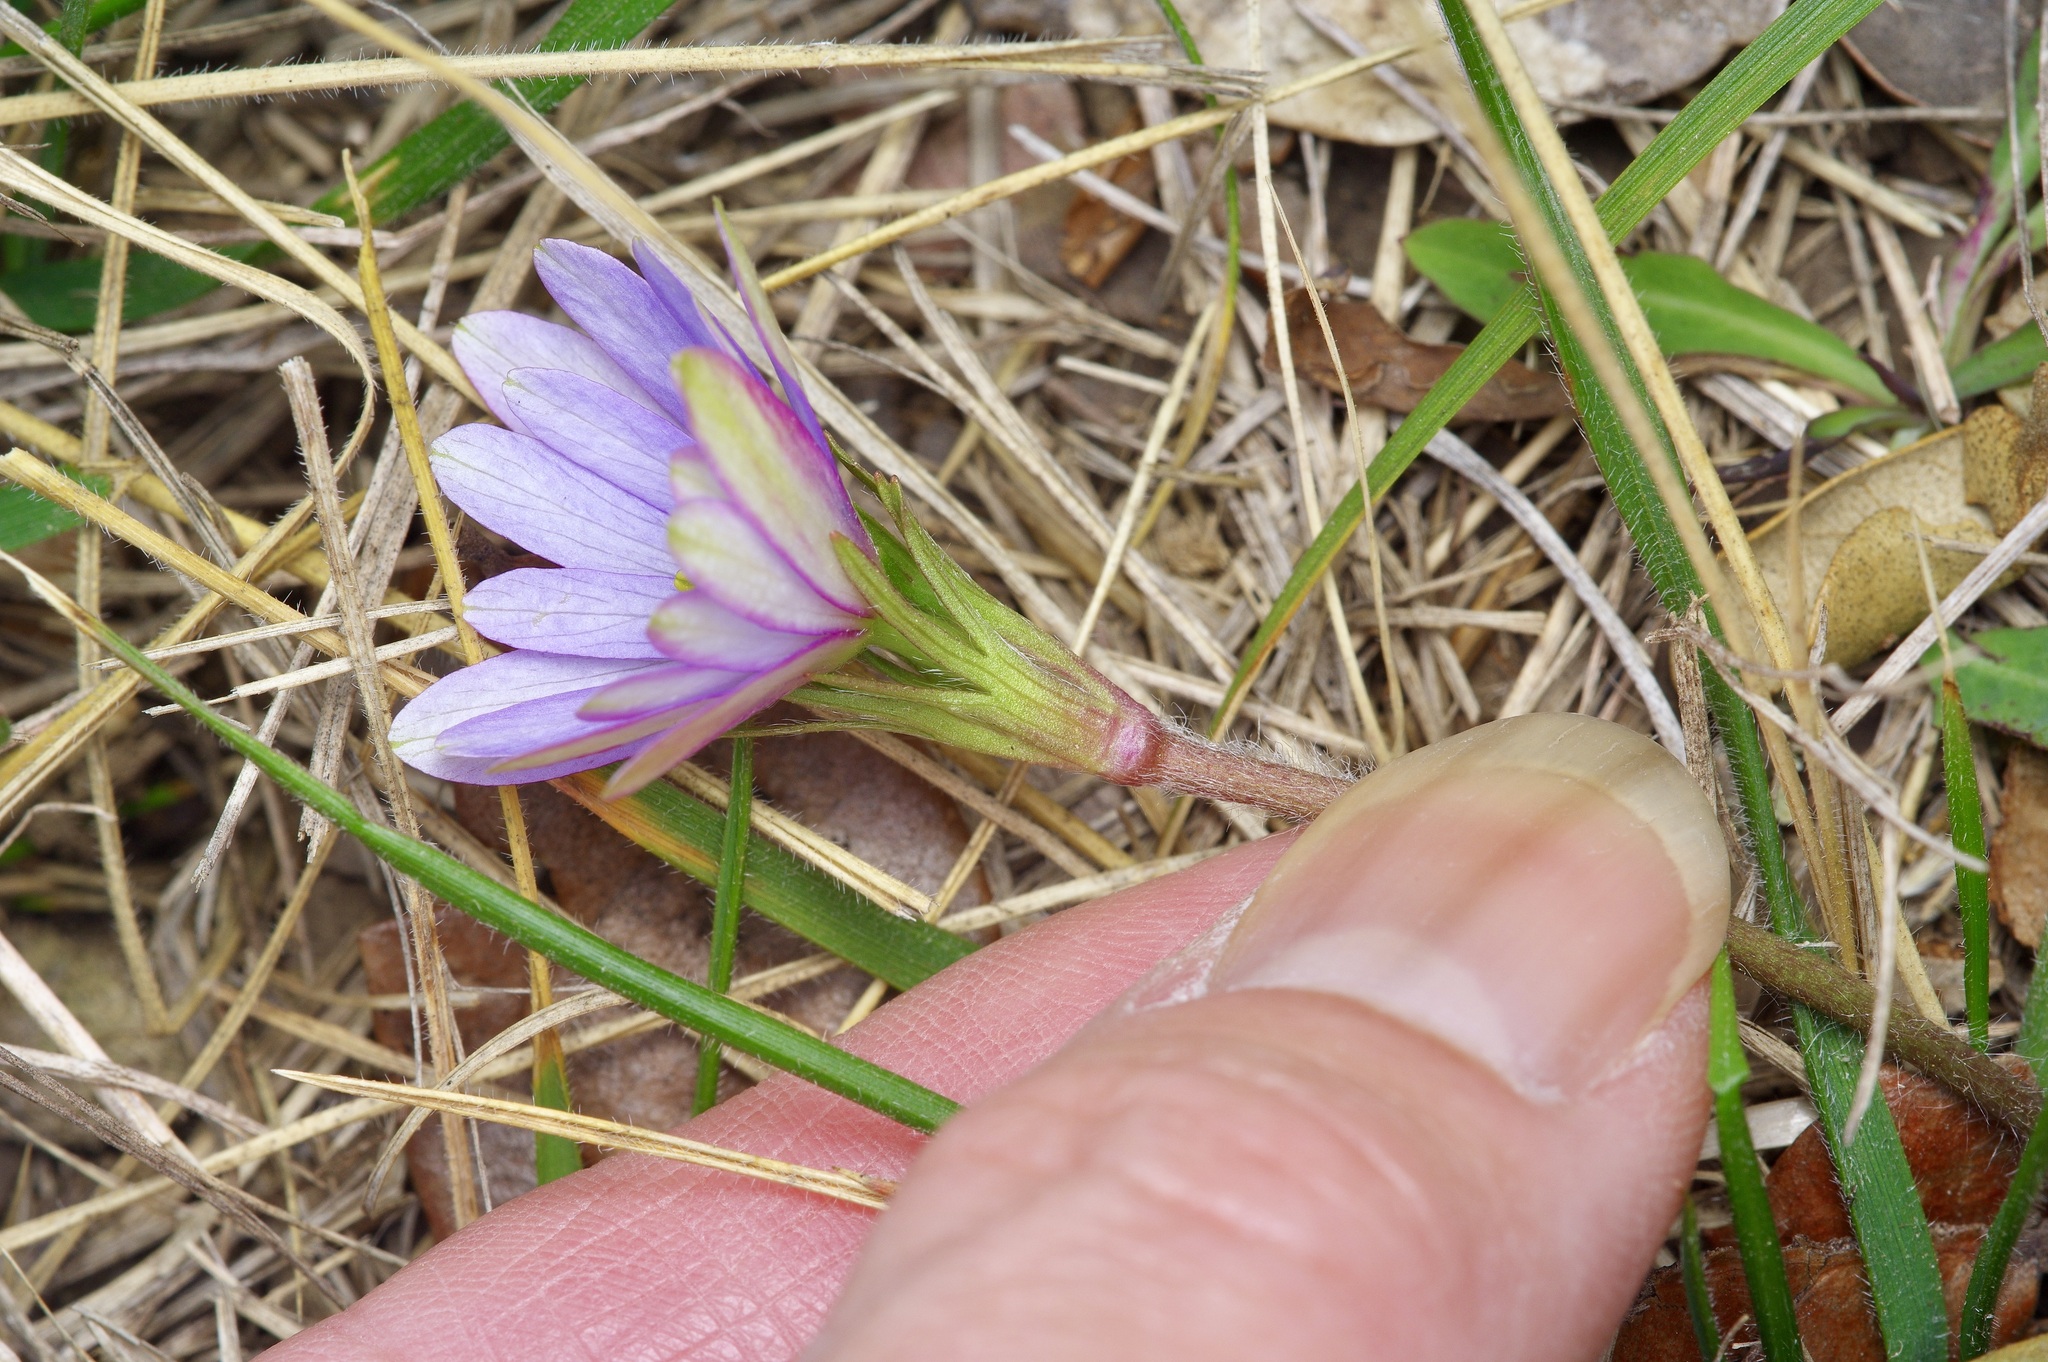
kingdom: Plantae
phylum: Tracheophyta
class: Magnoliopsida
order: Ranunculales
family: Ranunculaceae
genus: Anemone
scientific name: Anemone berlandieri
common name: Ten-petal anemone
